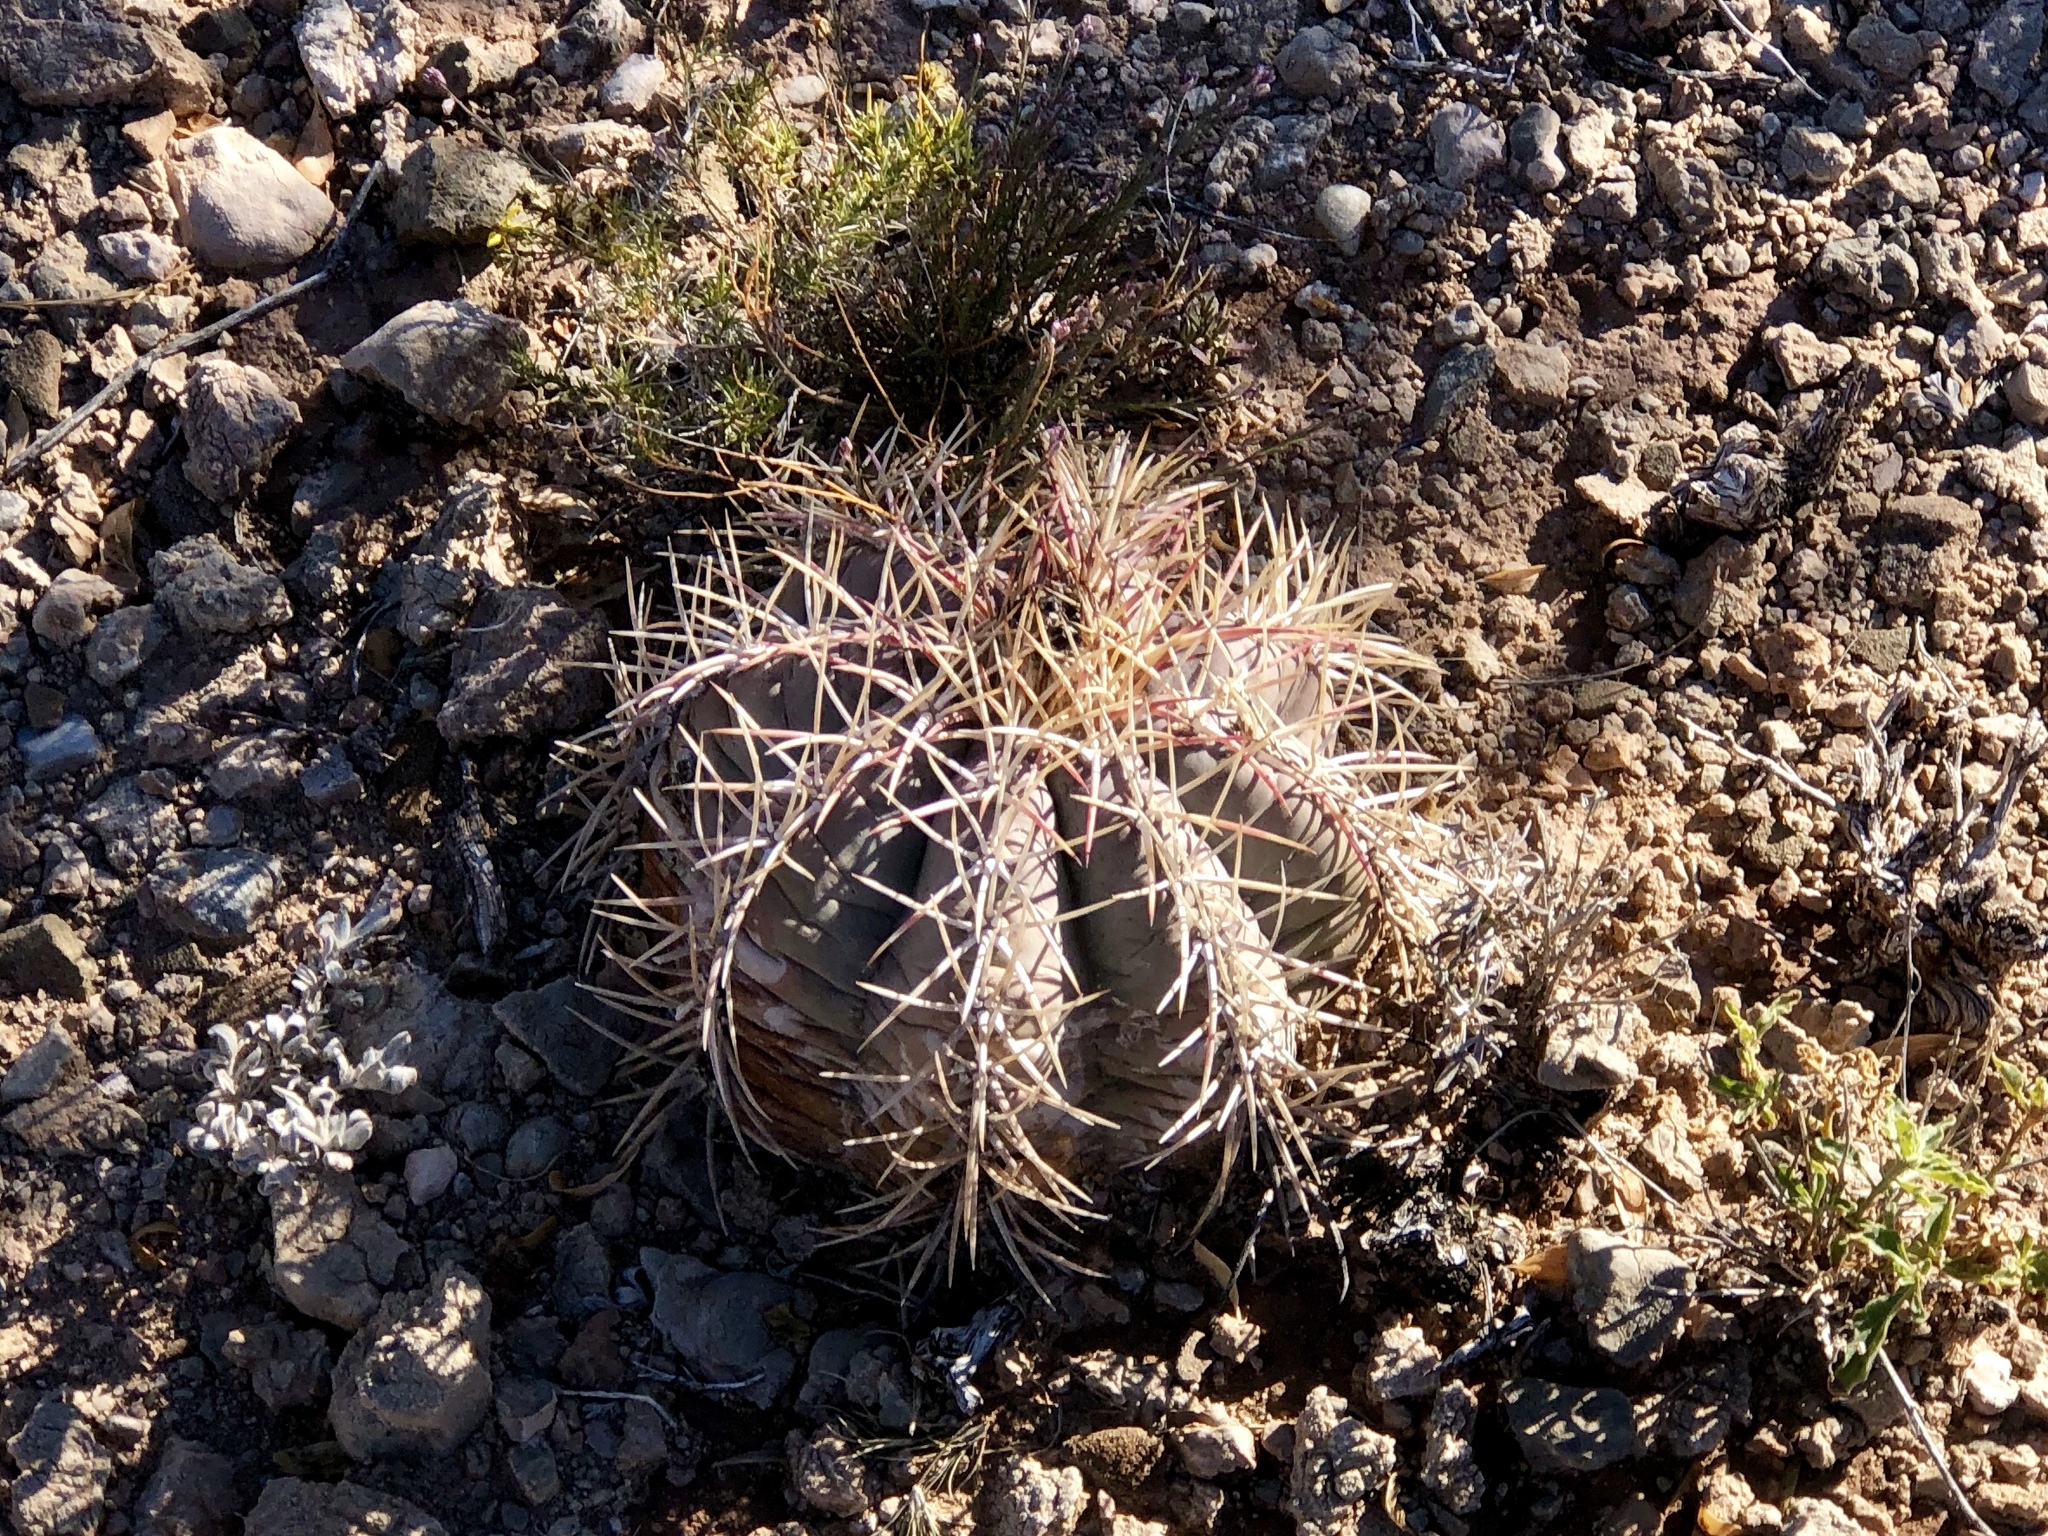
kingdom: Plantae
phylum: Tracheophyta
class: Magnoliopsida
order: Caryophyllales
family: Cactaceae
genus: Echinocactus
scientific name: Echinocactus horizonthalonius
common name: Devilshead
